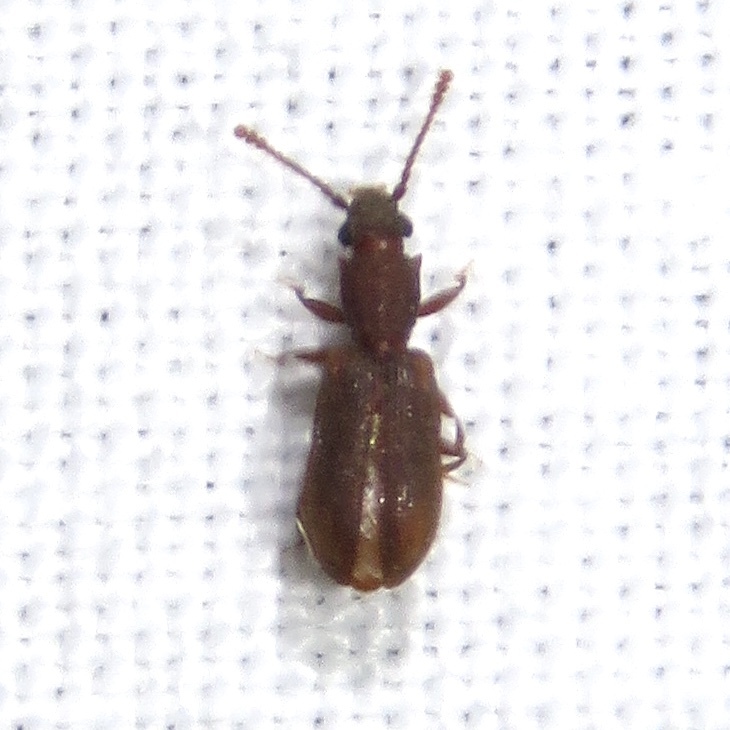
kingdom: Animalia
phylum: Arthropoda
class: Insecta
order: Coleoptera
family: Silvanidae
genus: Silvanoprus
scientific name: Silvanoprus angusticollis
